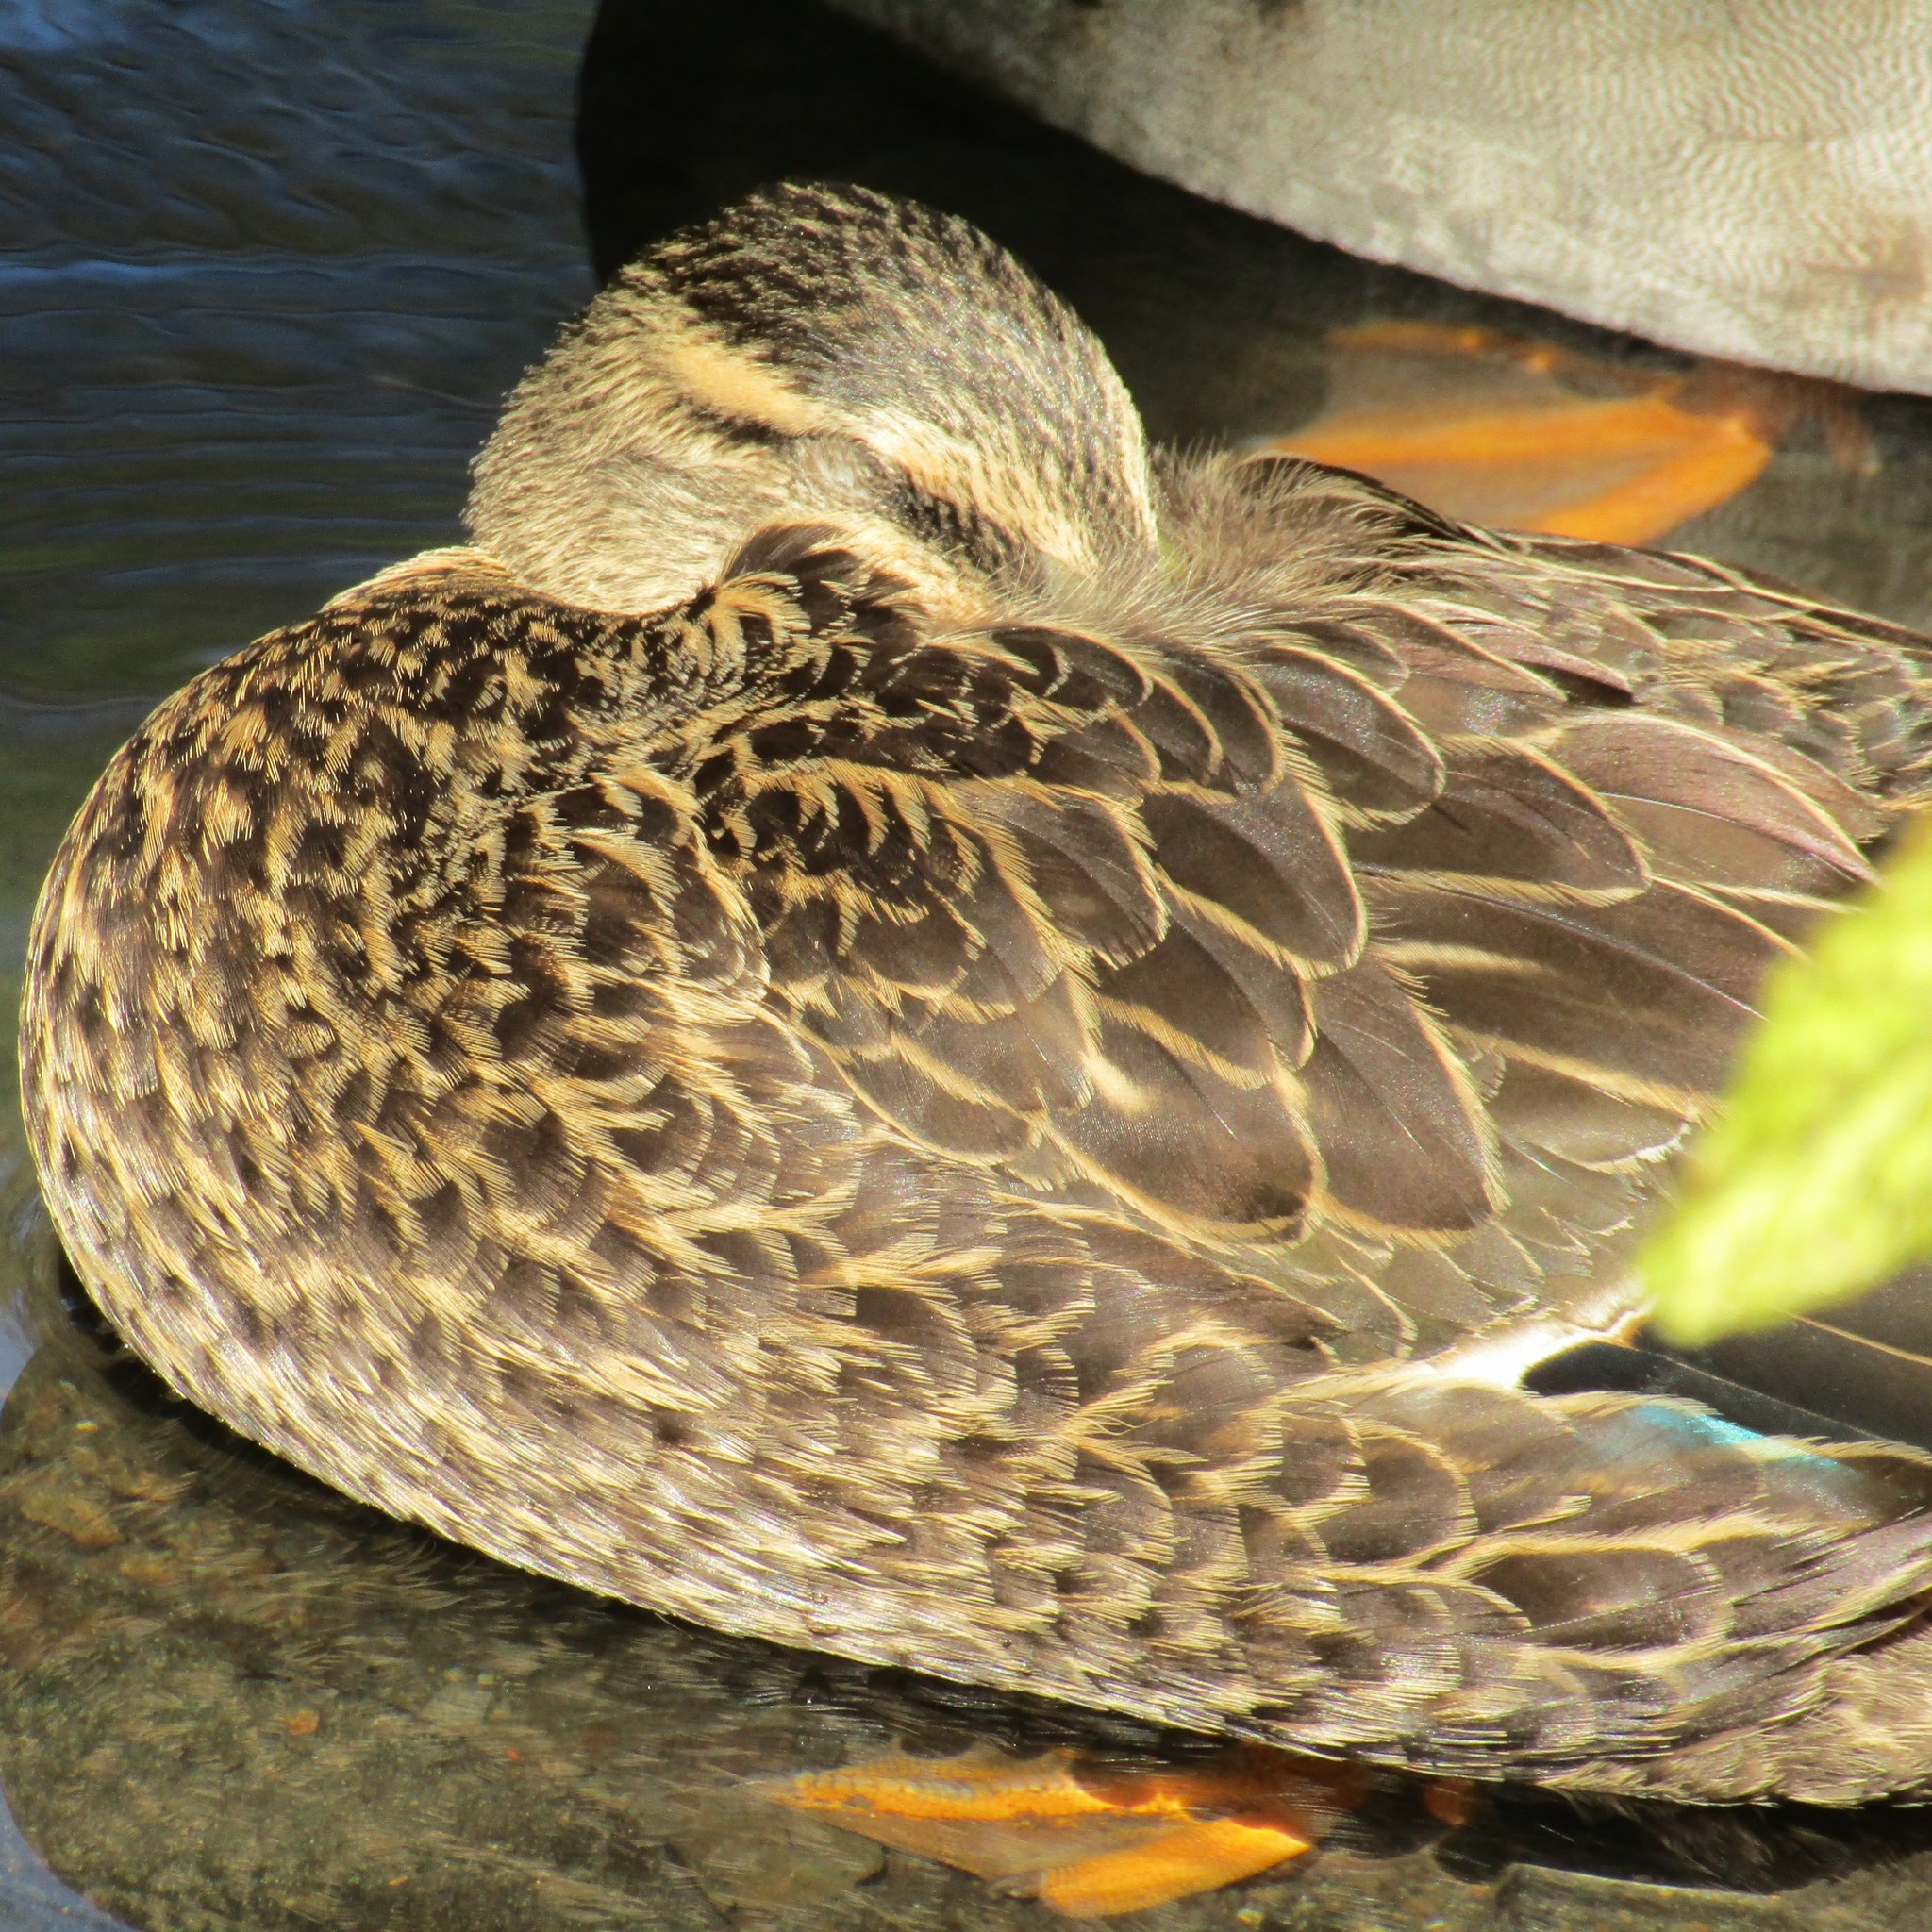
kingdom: Animalia
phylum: Chordata
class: Aves
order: Anseriformes
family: Anatidae
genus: Anas
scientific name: Anas
